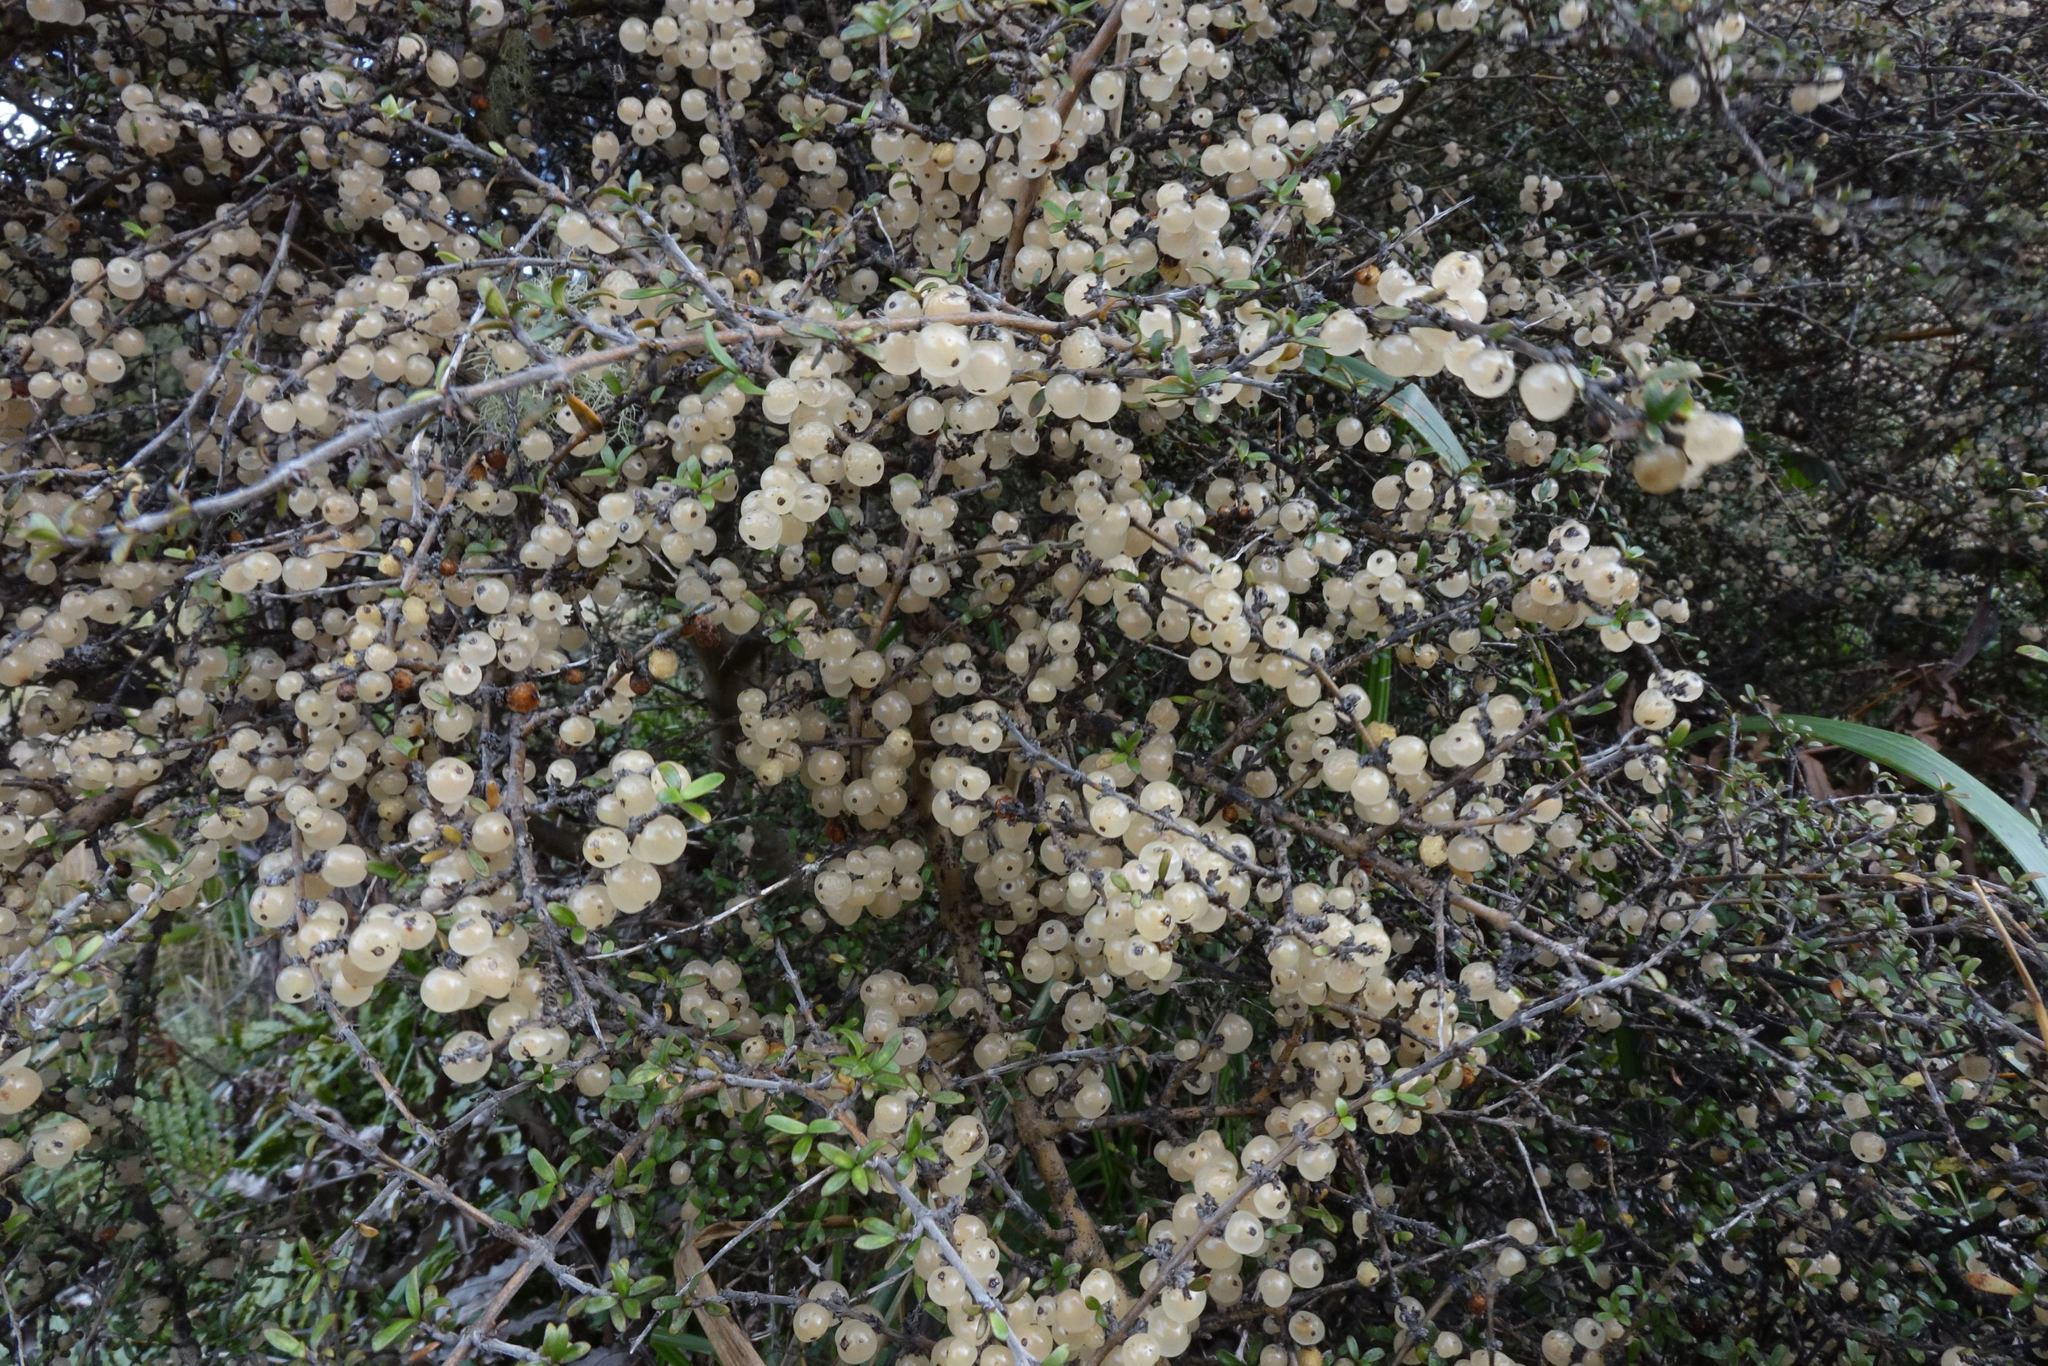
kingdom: Plantae
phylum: Tracheophyta
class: Magnoliopsida
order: Gentianales
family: Rubiaceae
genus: Coprosma
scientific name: Coprosma dumosa
